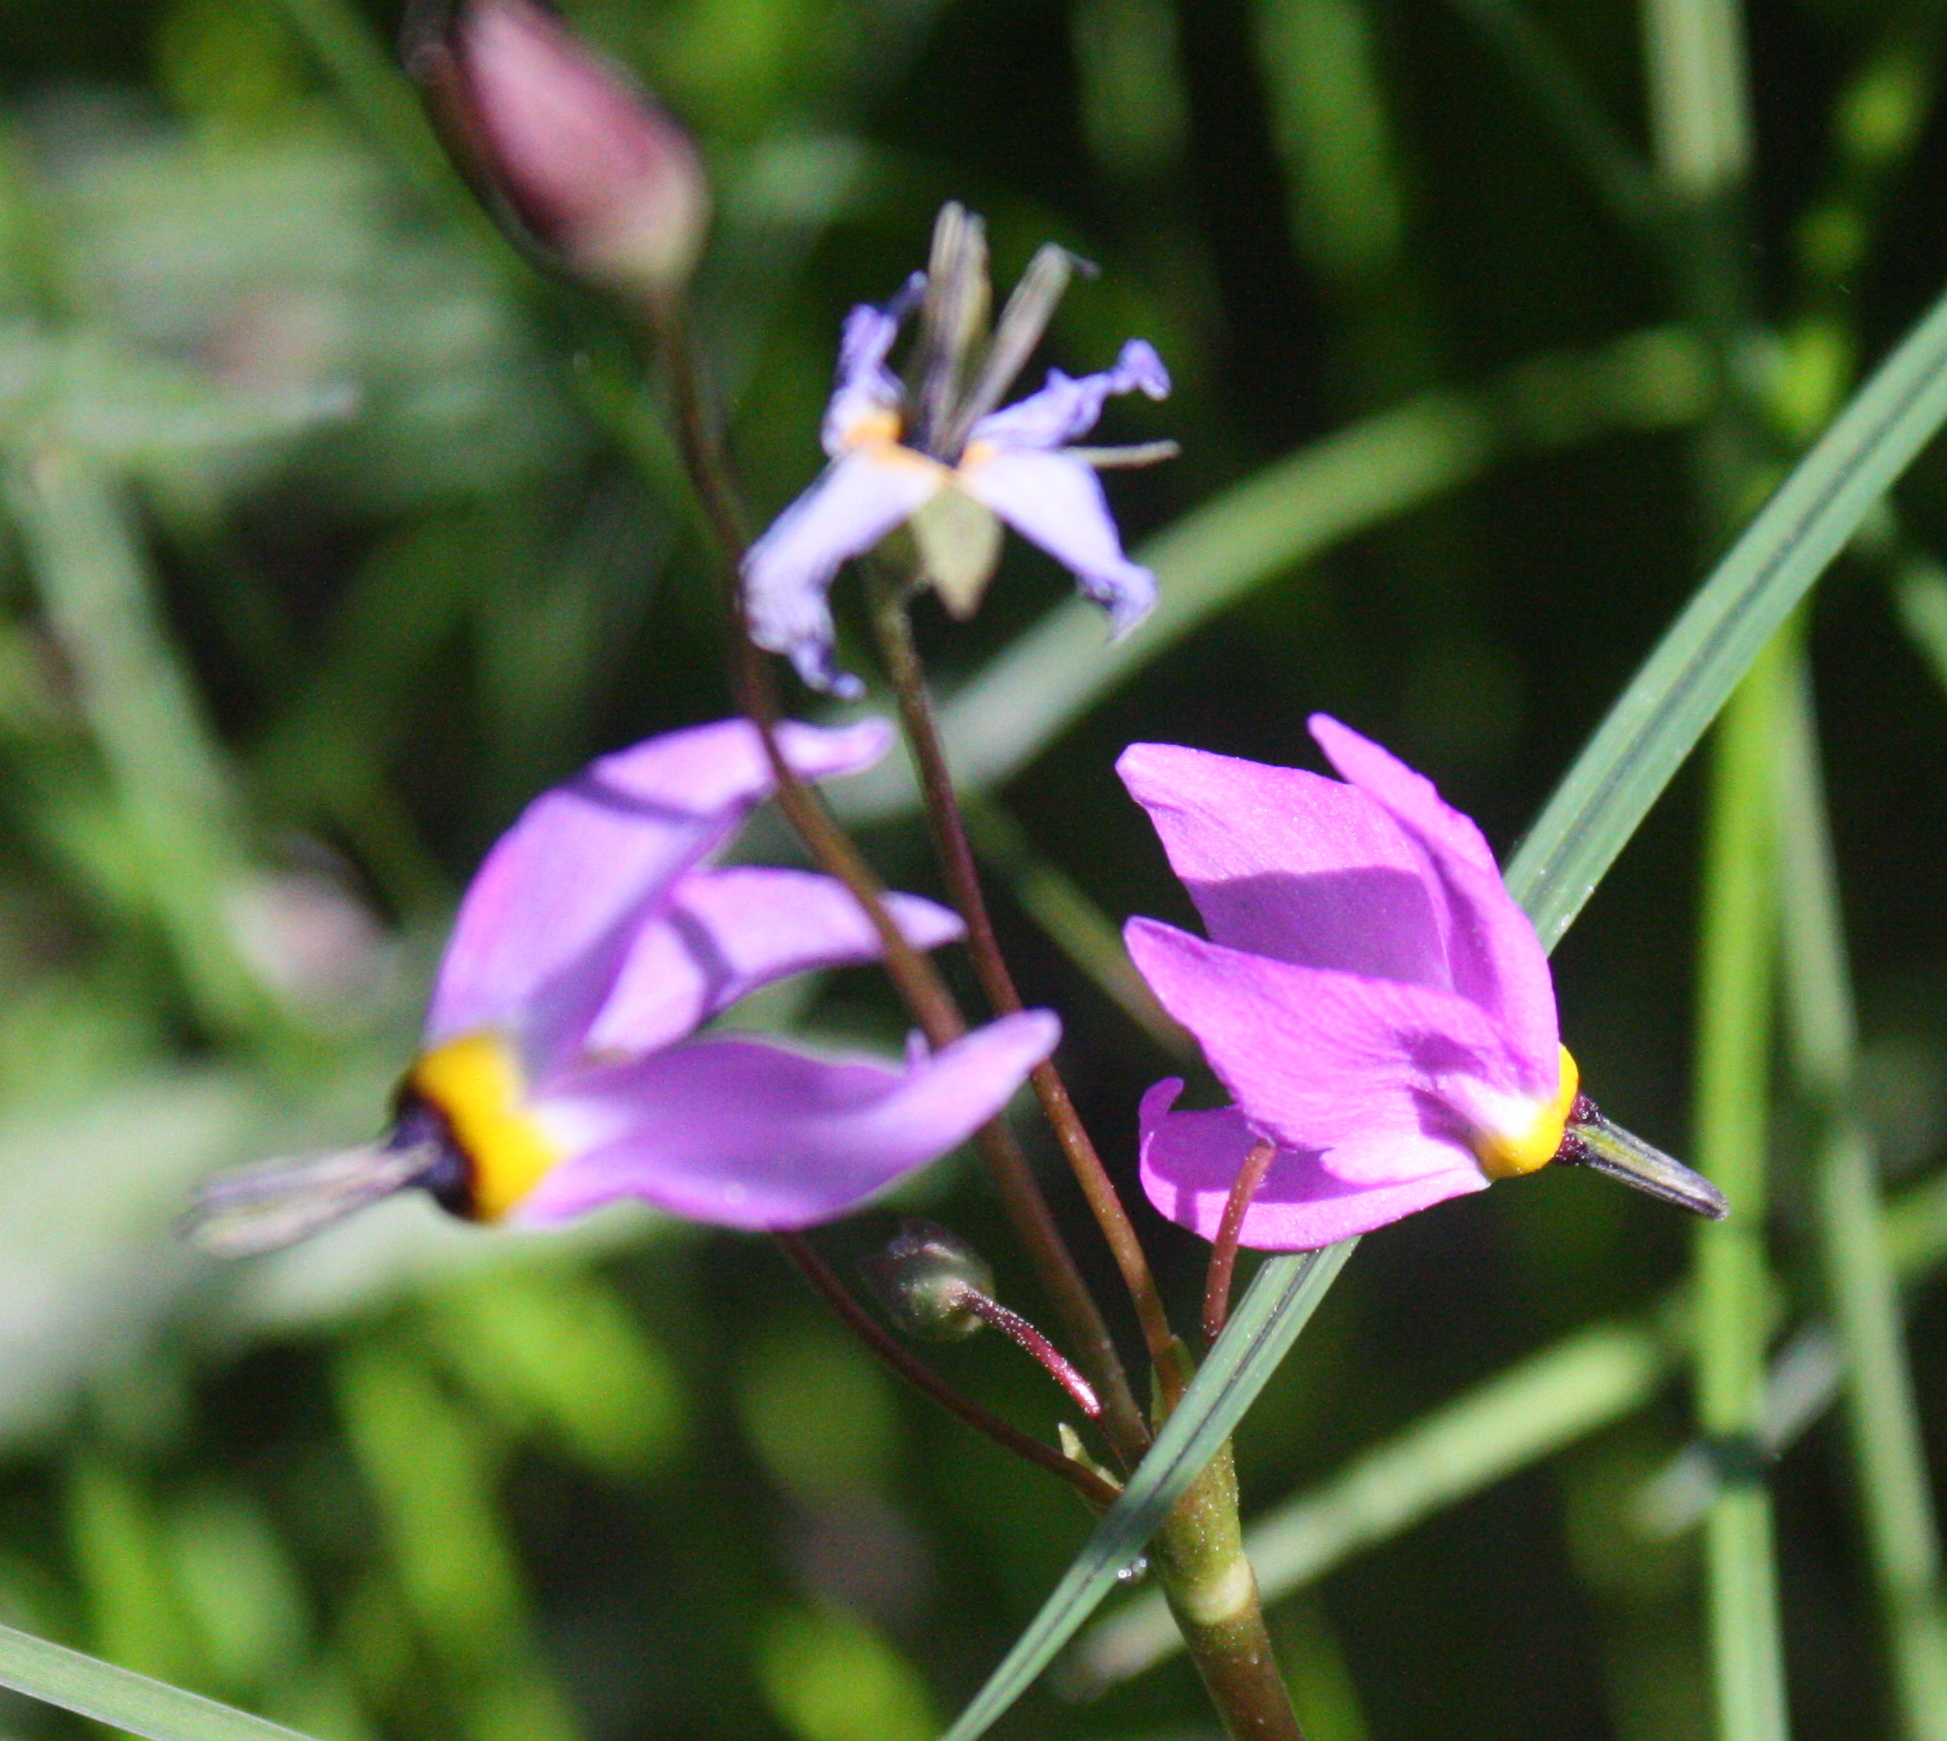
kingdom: Plantae
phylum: Tracheophyta
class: Magnoliopsida
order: Ericales
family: Primulaceae
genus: Dodecatheon
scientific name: Dodecatheon alpinum
